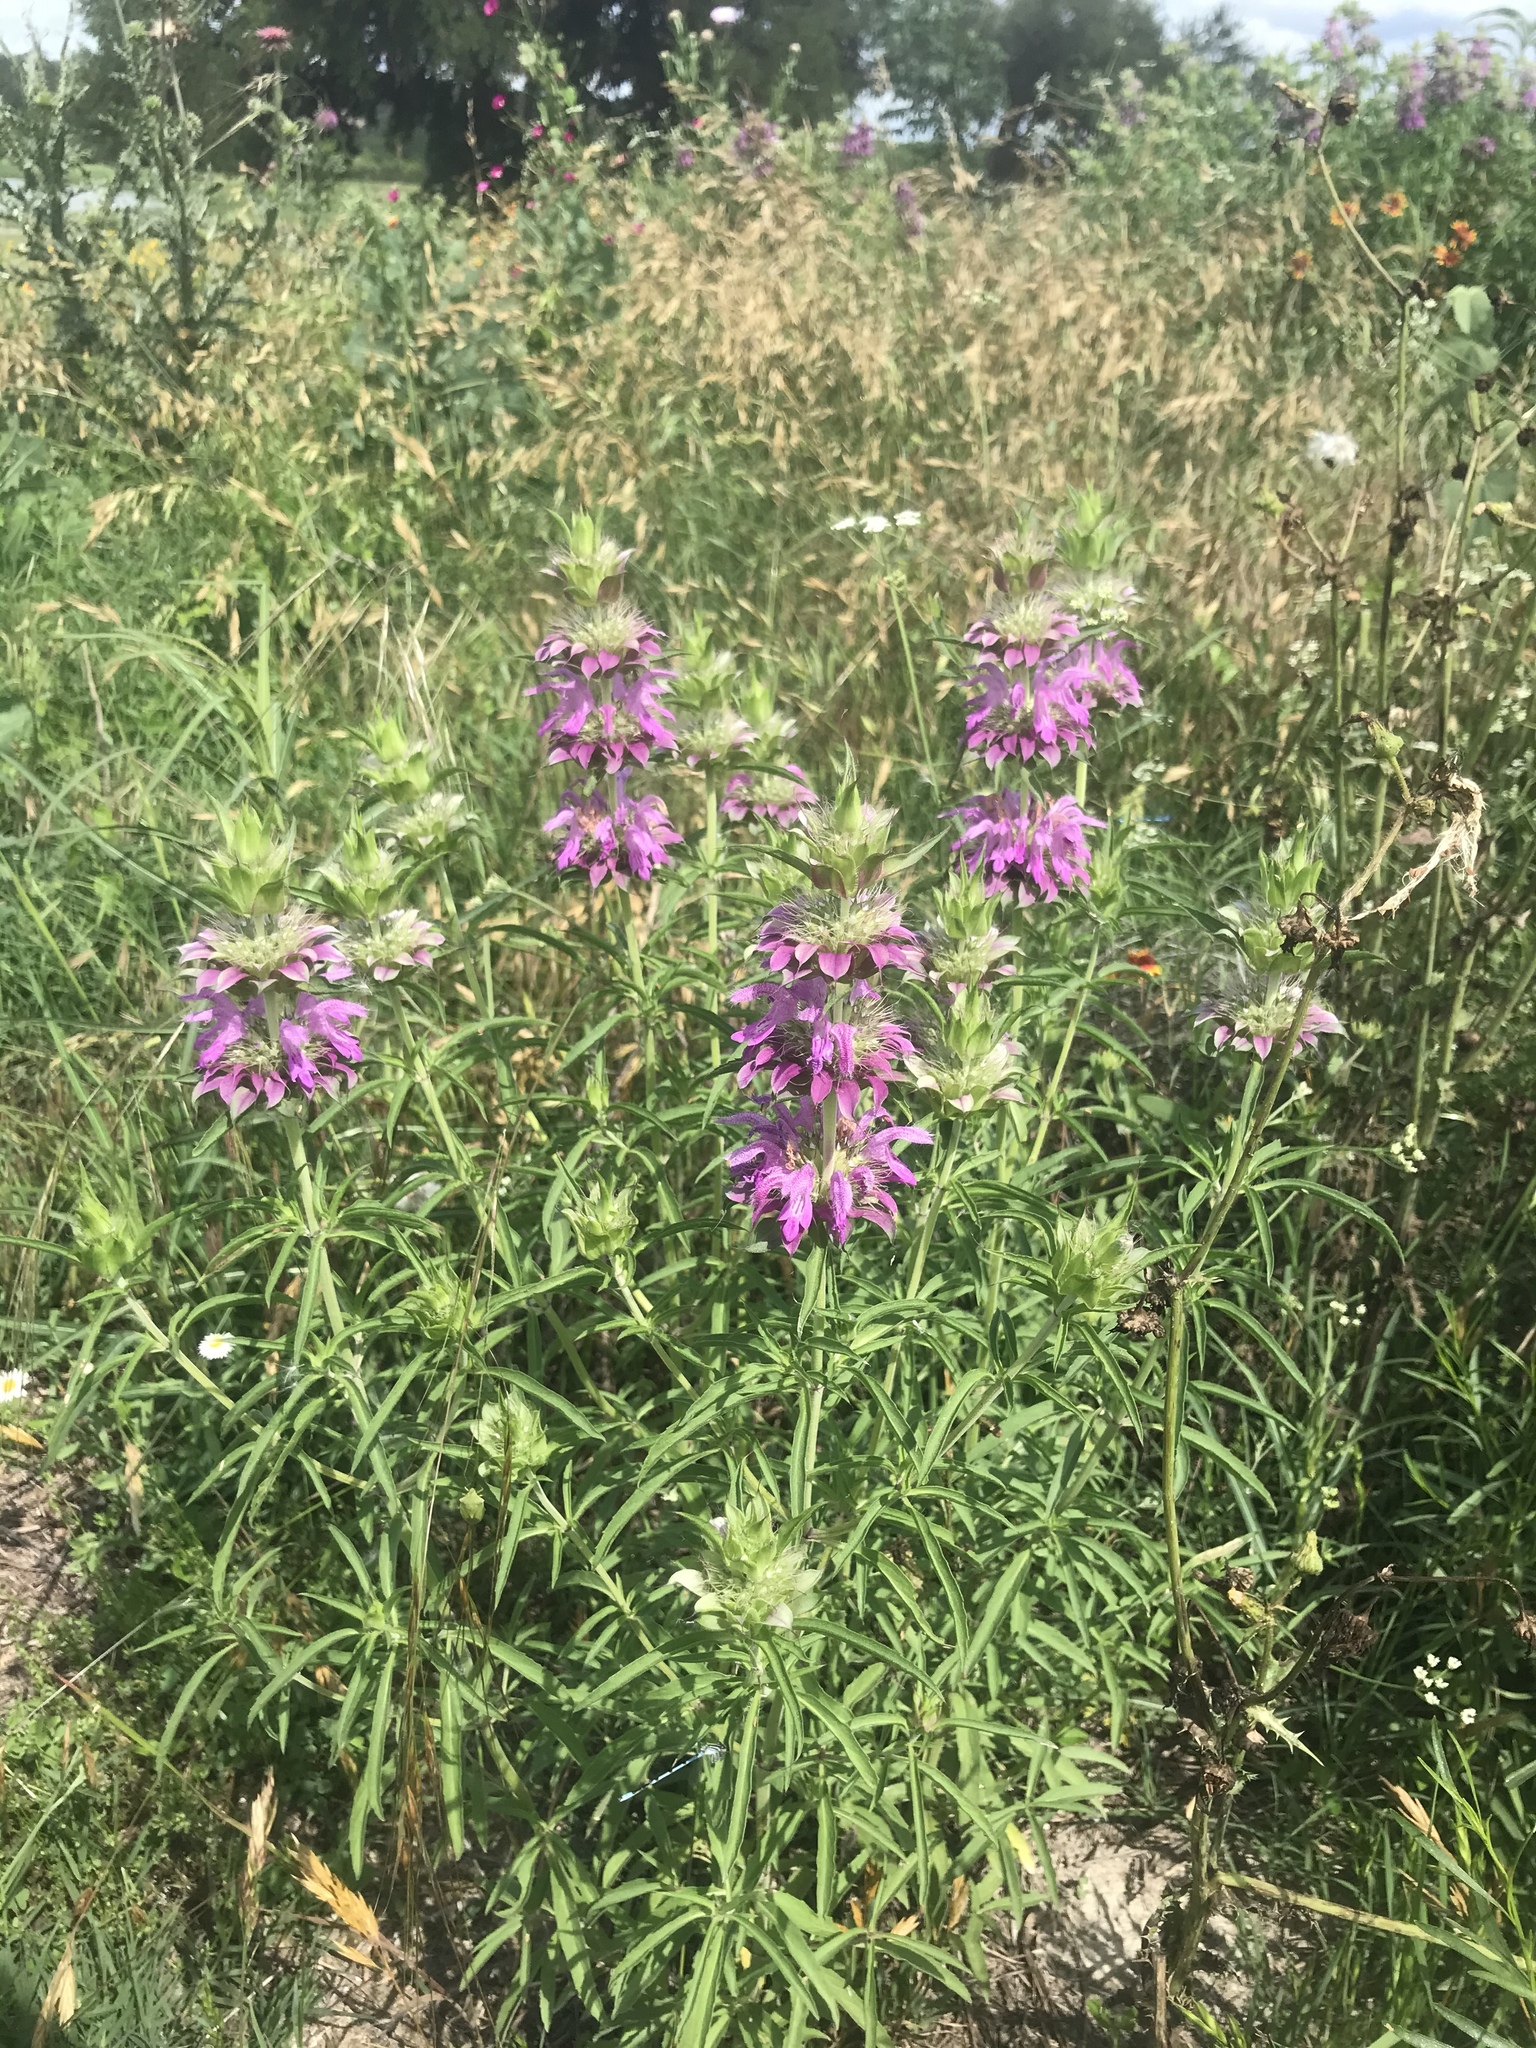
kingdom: Plantae
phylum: Tracheophyta
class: Magnoliopsida
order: Lamiales
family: Lamiaceae
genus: Monarda
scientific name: Monarda citriodora
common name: Lemon beebalm
